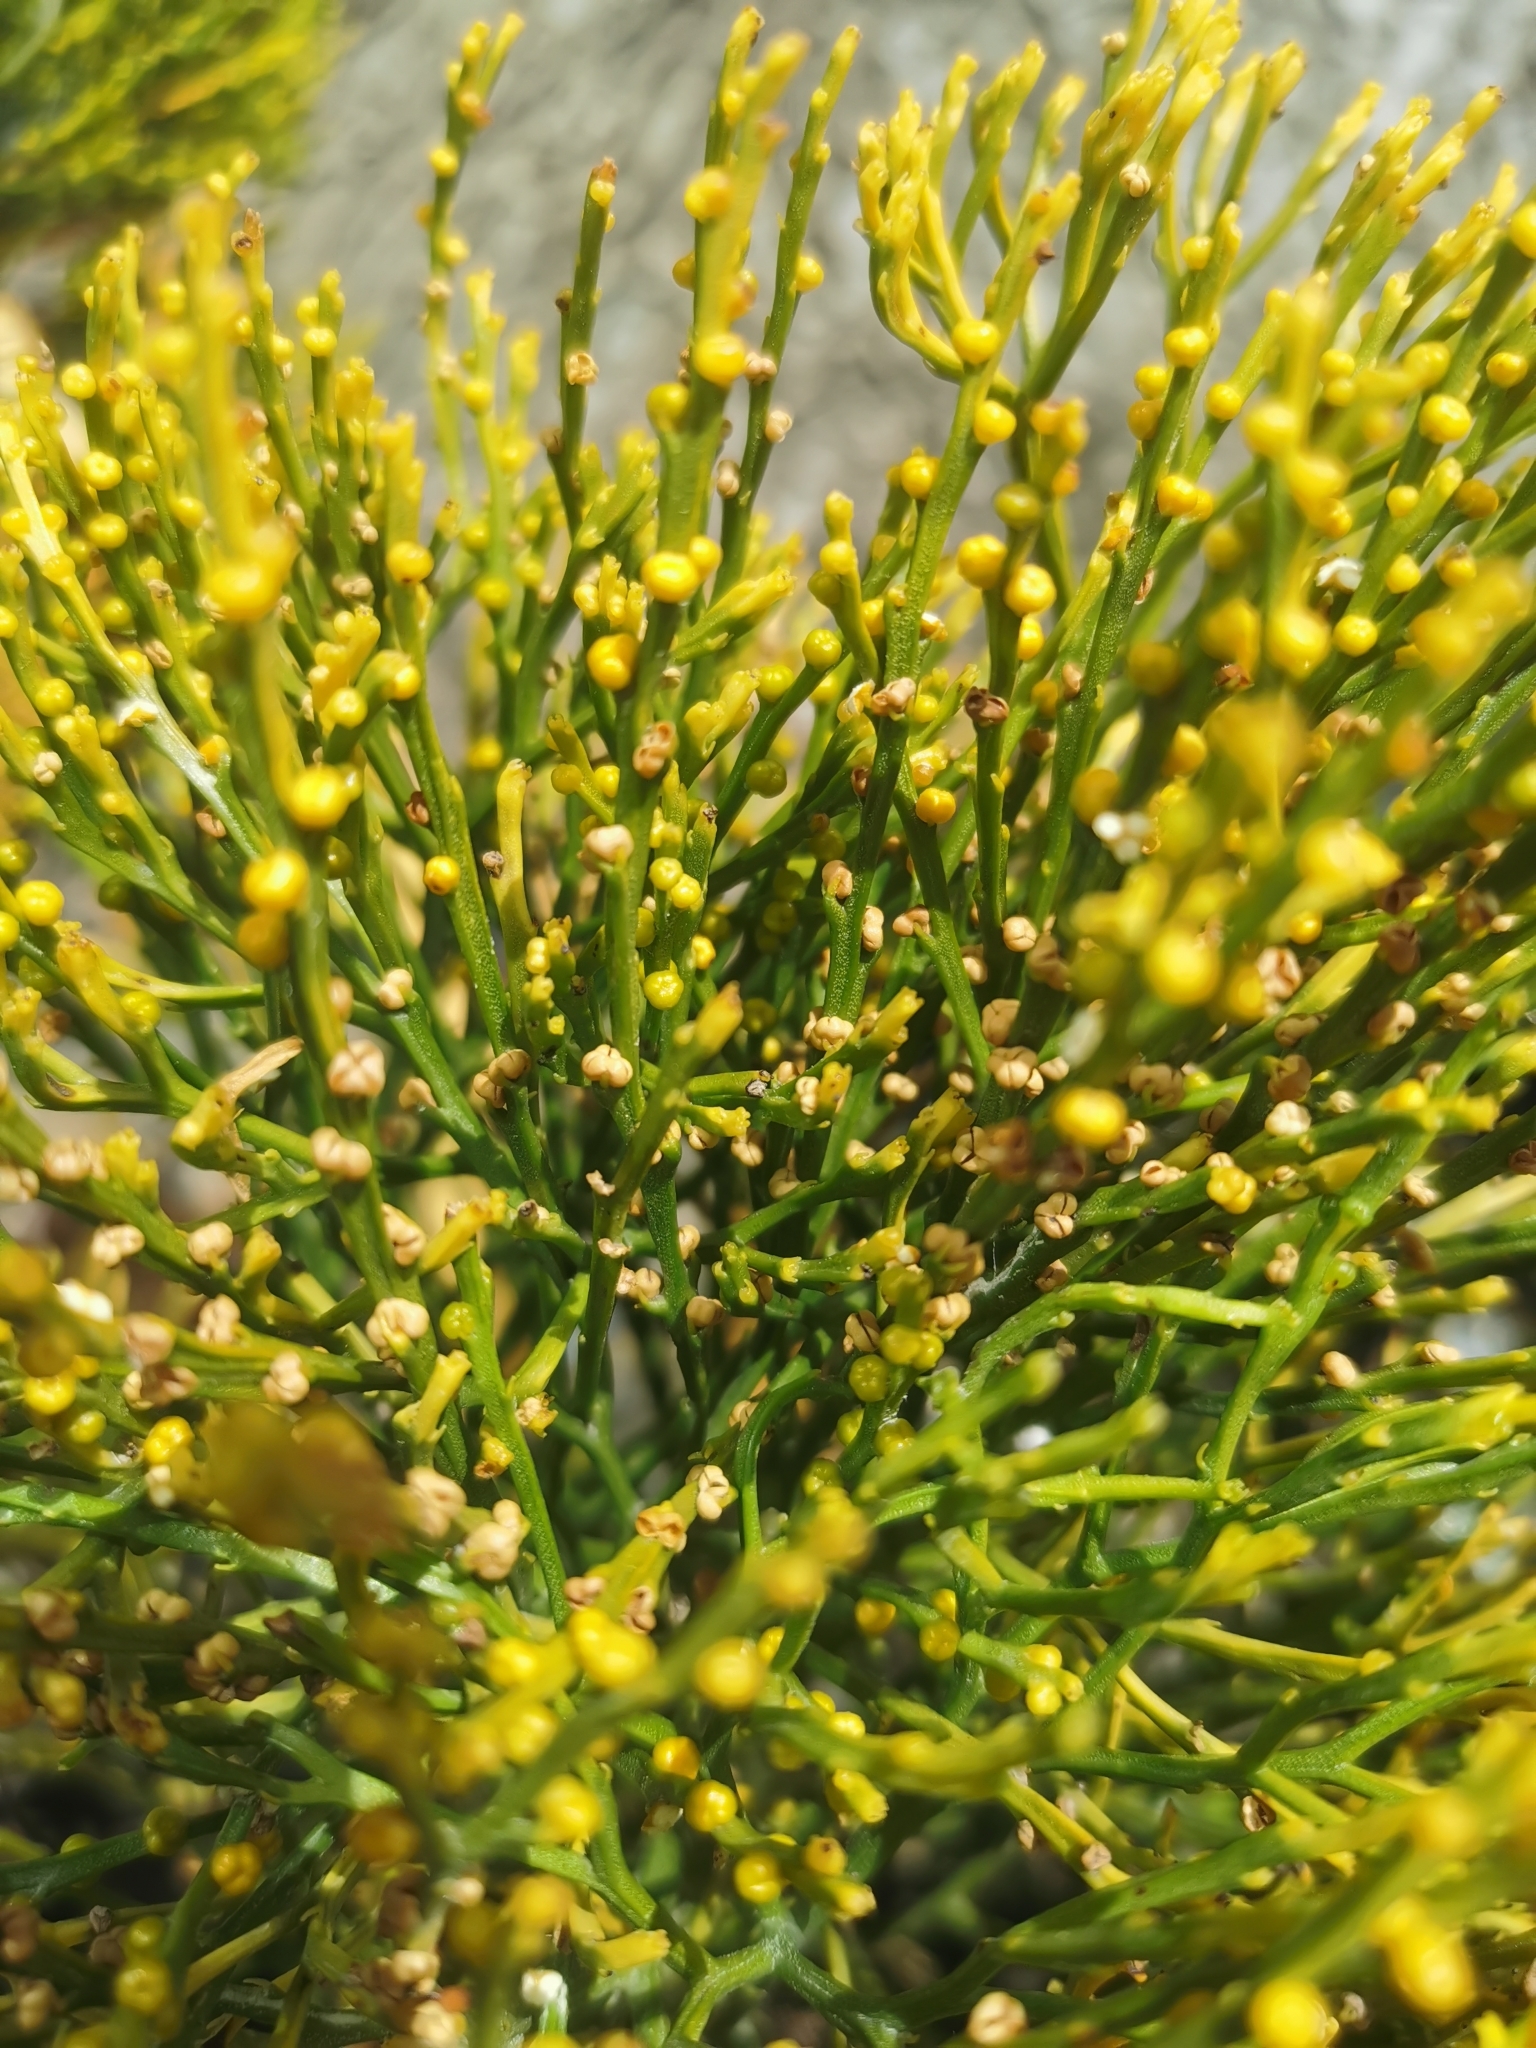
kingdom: Plantae
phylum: Tracheophyta
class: Polypodiopsida
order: Psilotales
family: Psilotaceae
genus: Psilotum
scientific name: Psilotum nudum
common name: Skeleton fork fern
